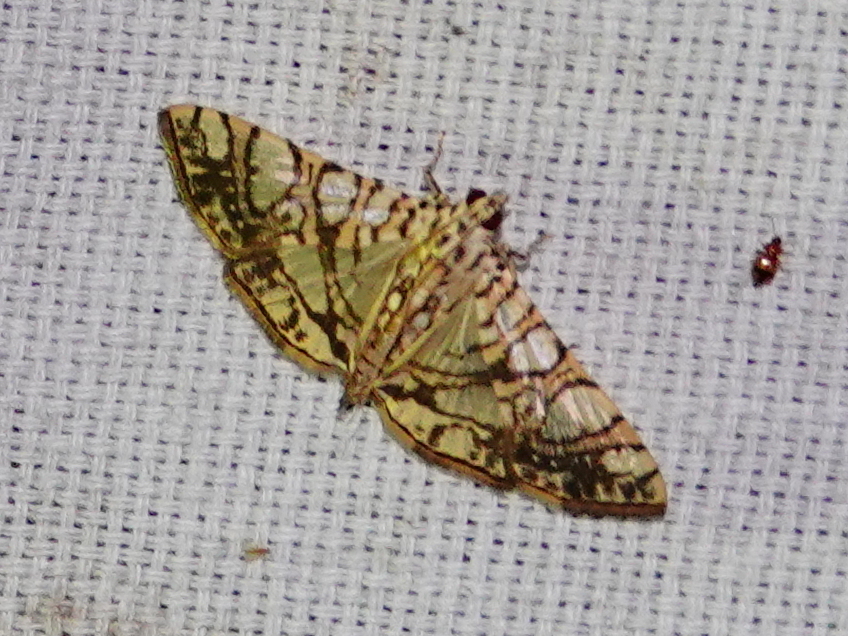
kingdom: Animalia
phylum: Arthropoda
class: Insecta
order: Lepidoptera
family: Crambidae
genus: Glyphodes
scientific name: Glyphodes caesalis
